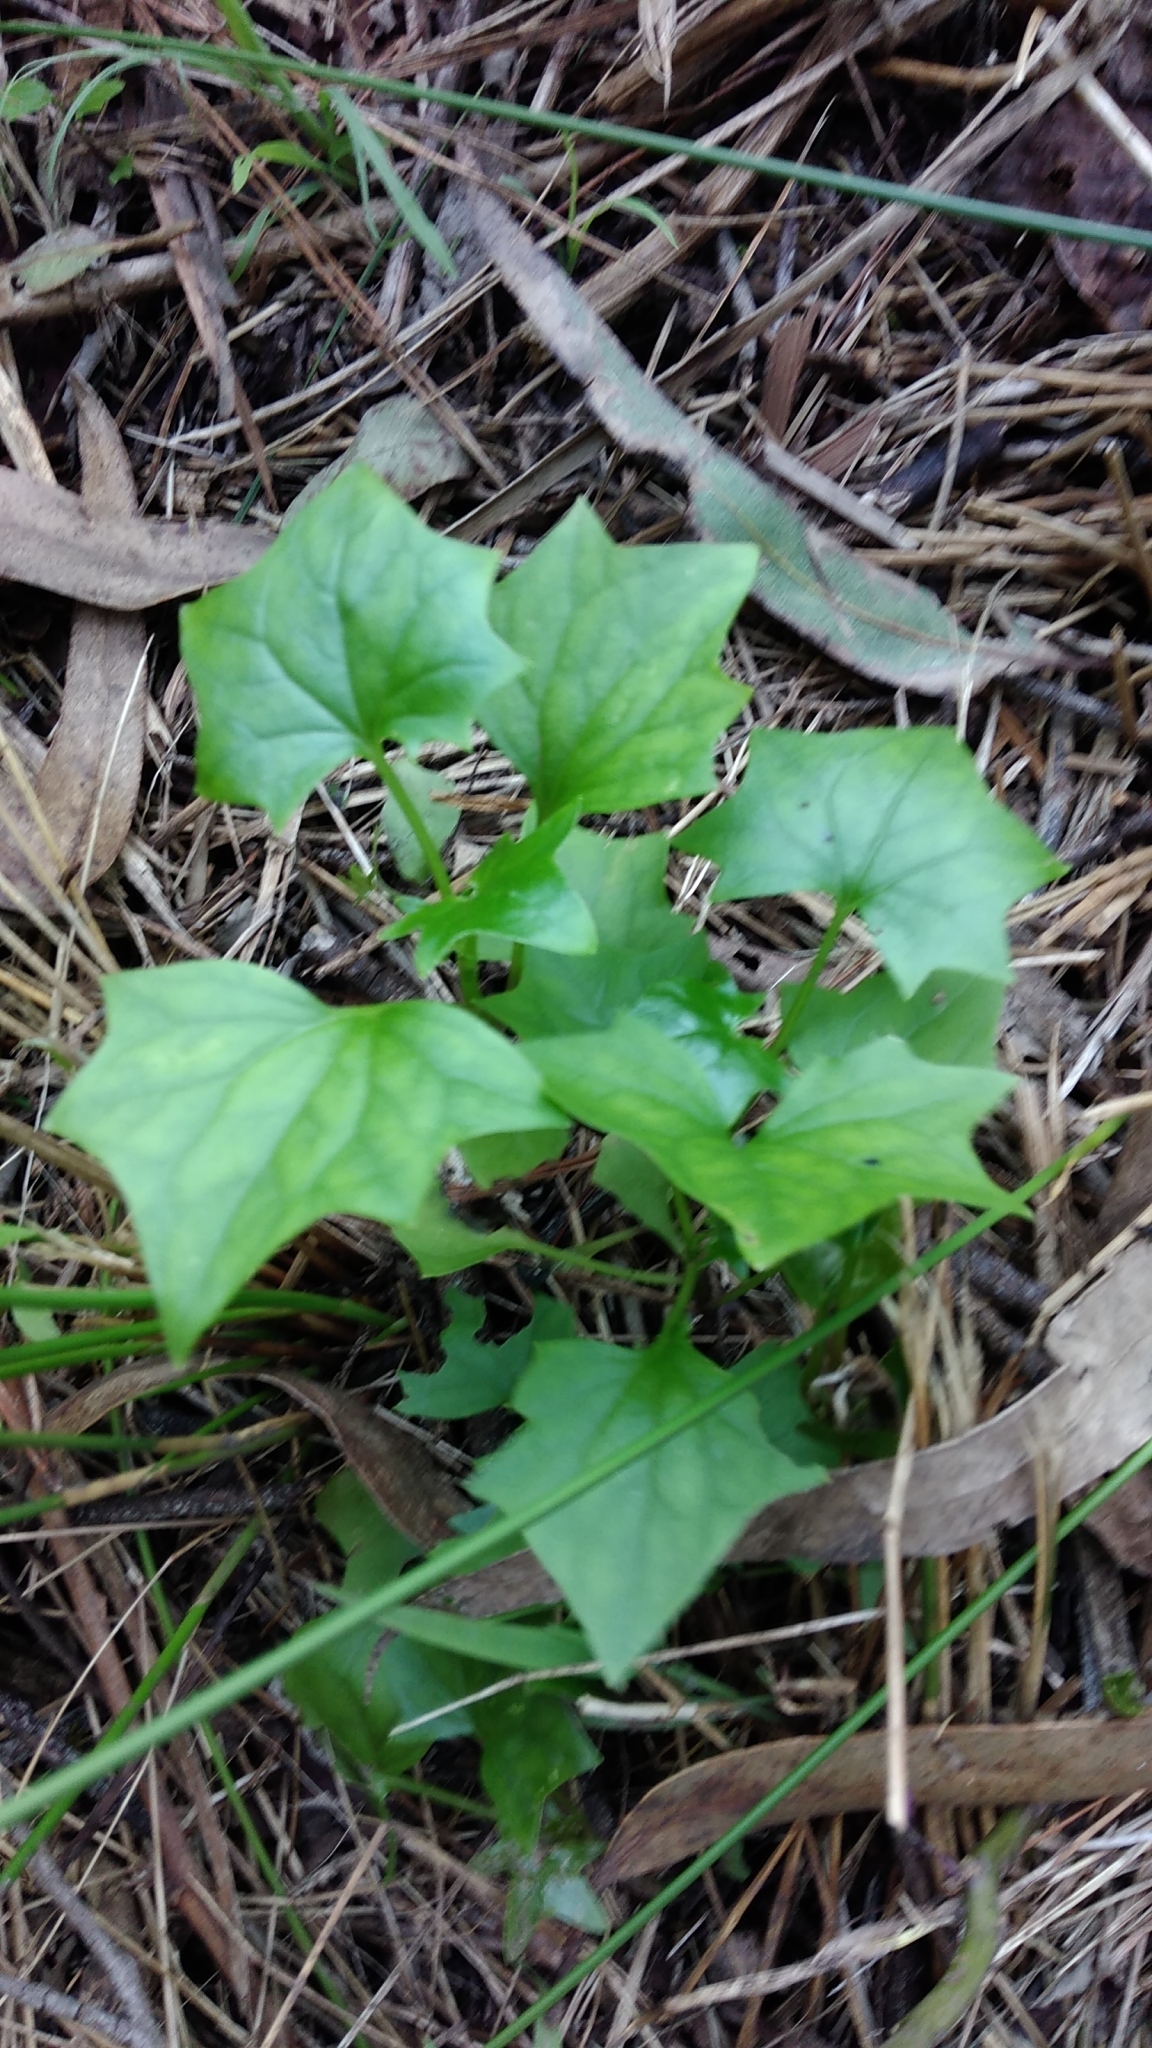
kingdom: Plantae
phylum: Tracheophyta
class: Magnoliopsida
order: Asterales
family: Asteraceae
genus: Delairea
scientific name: Delairea odorata
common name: Cape-ivy
